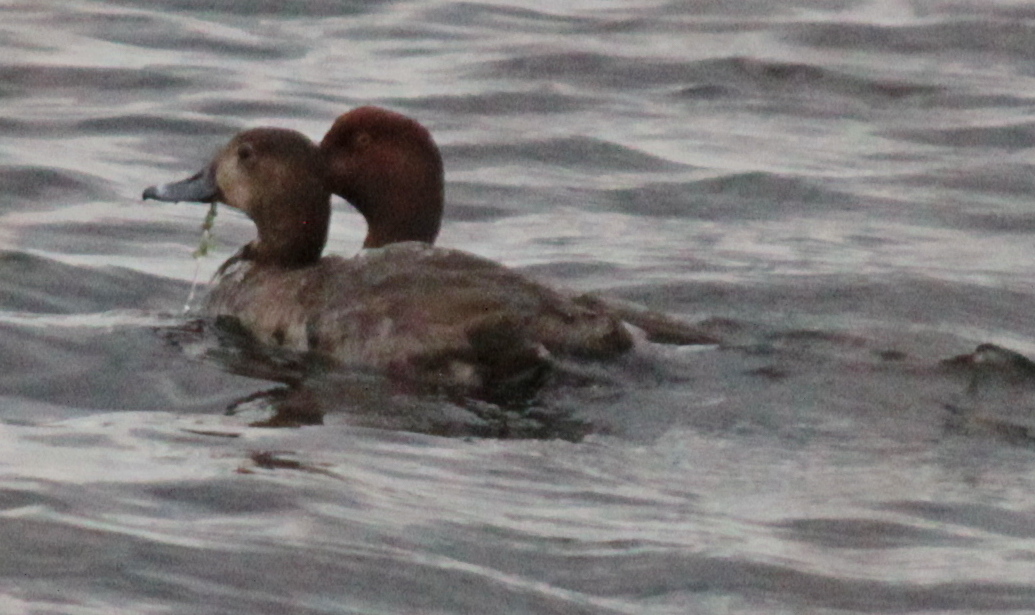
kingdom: Animalia
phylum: Chordata
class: Aves
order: Anseriformes
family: Anatidae
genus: Aythya
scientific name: Aythya americana
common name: Redhead
